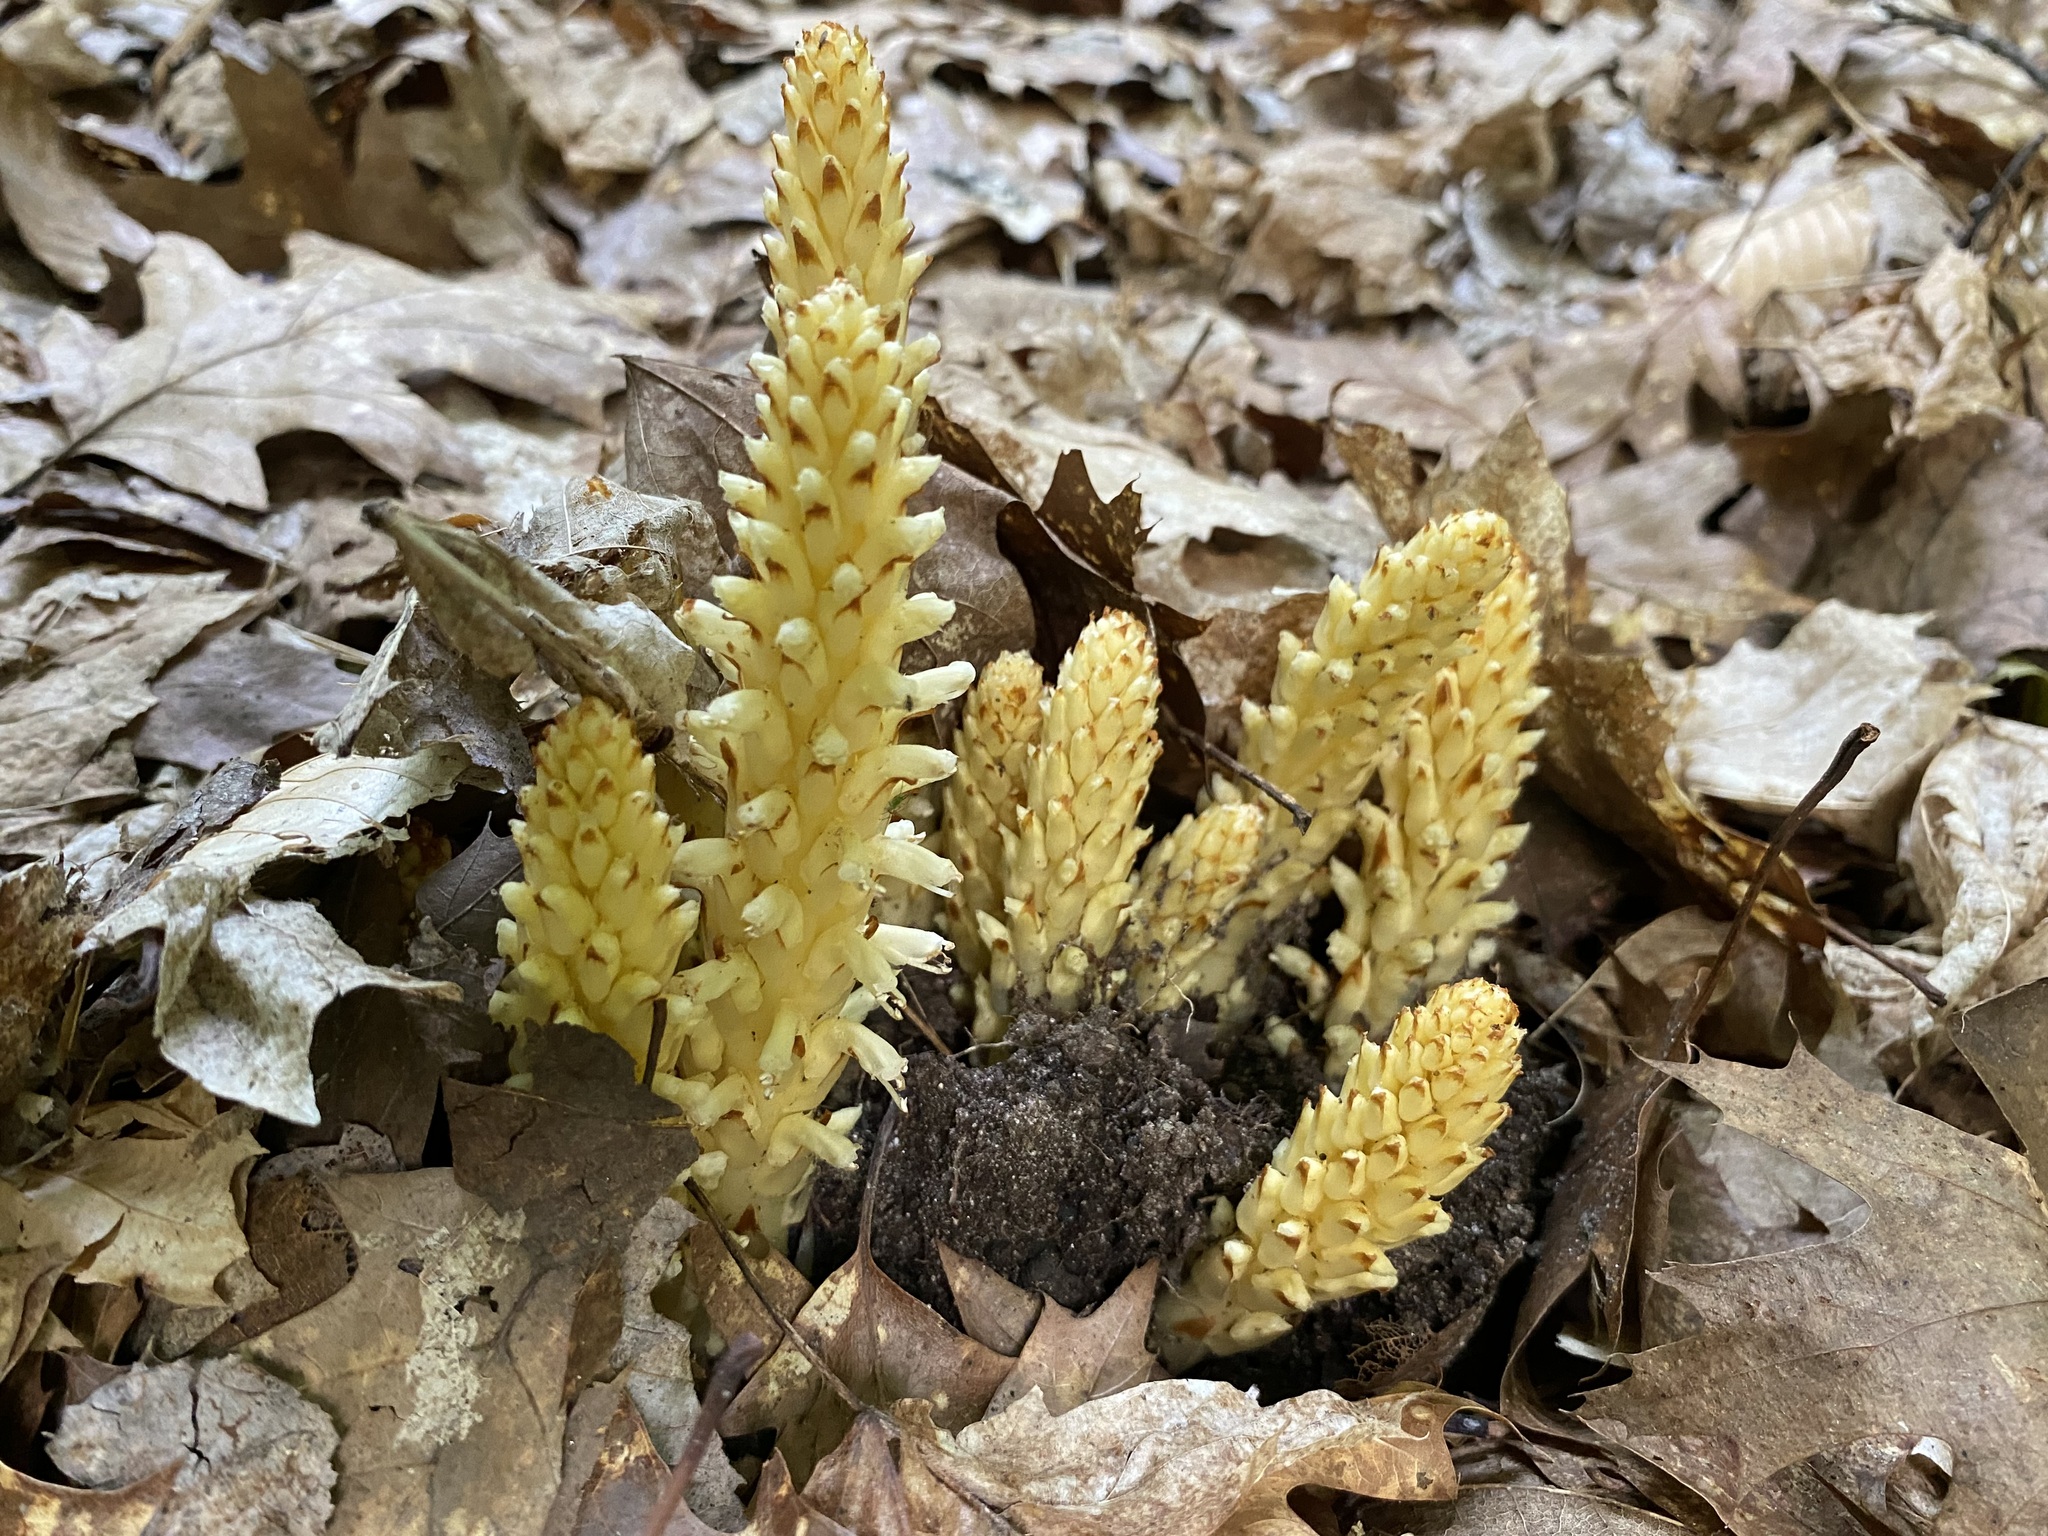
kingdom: Plantae
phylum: Tracheophyta
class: Magnoliopsida
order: Lamiales
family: Orobanchaceae
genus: Conopholis
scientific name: Conopholis americana
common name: American cancer-root
